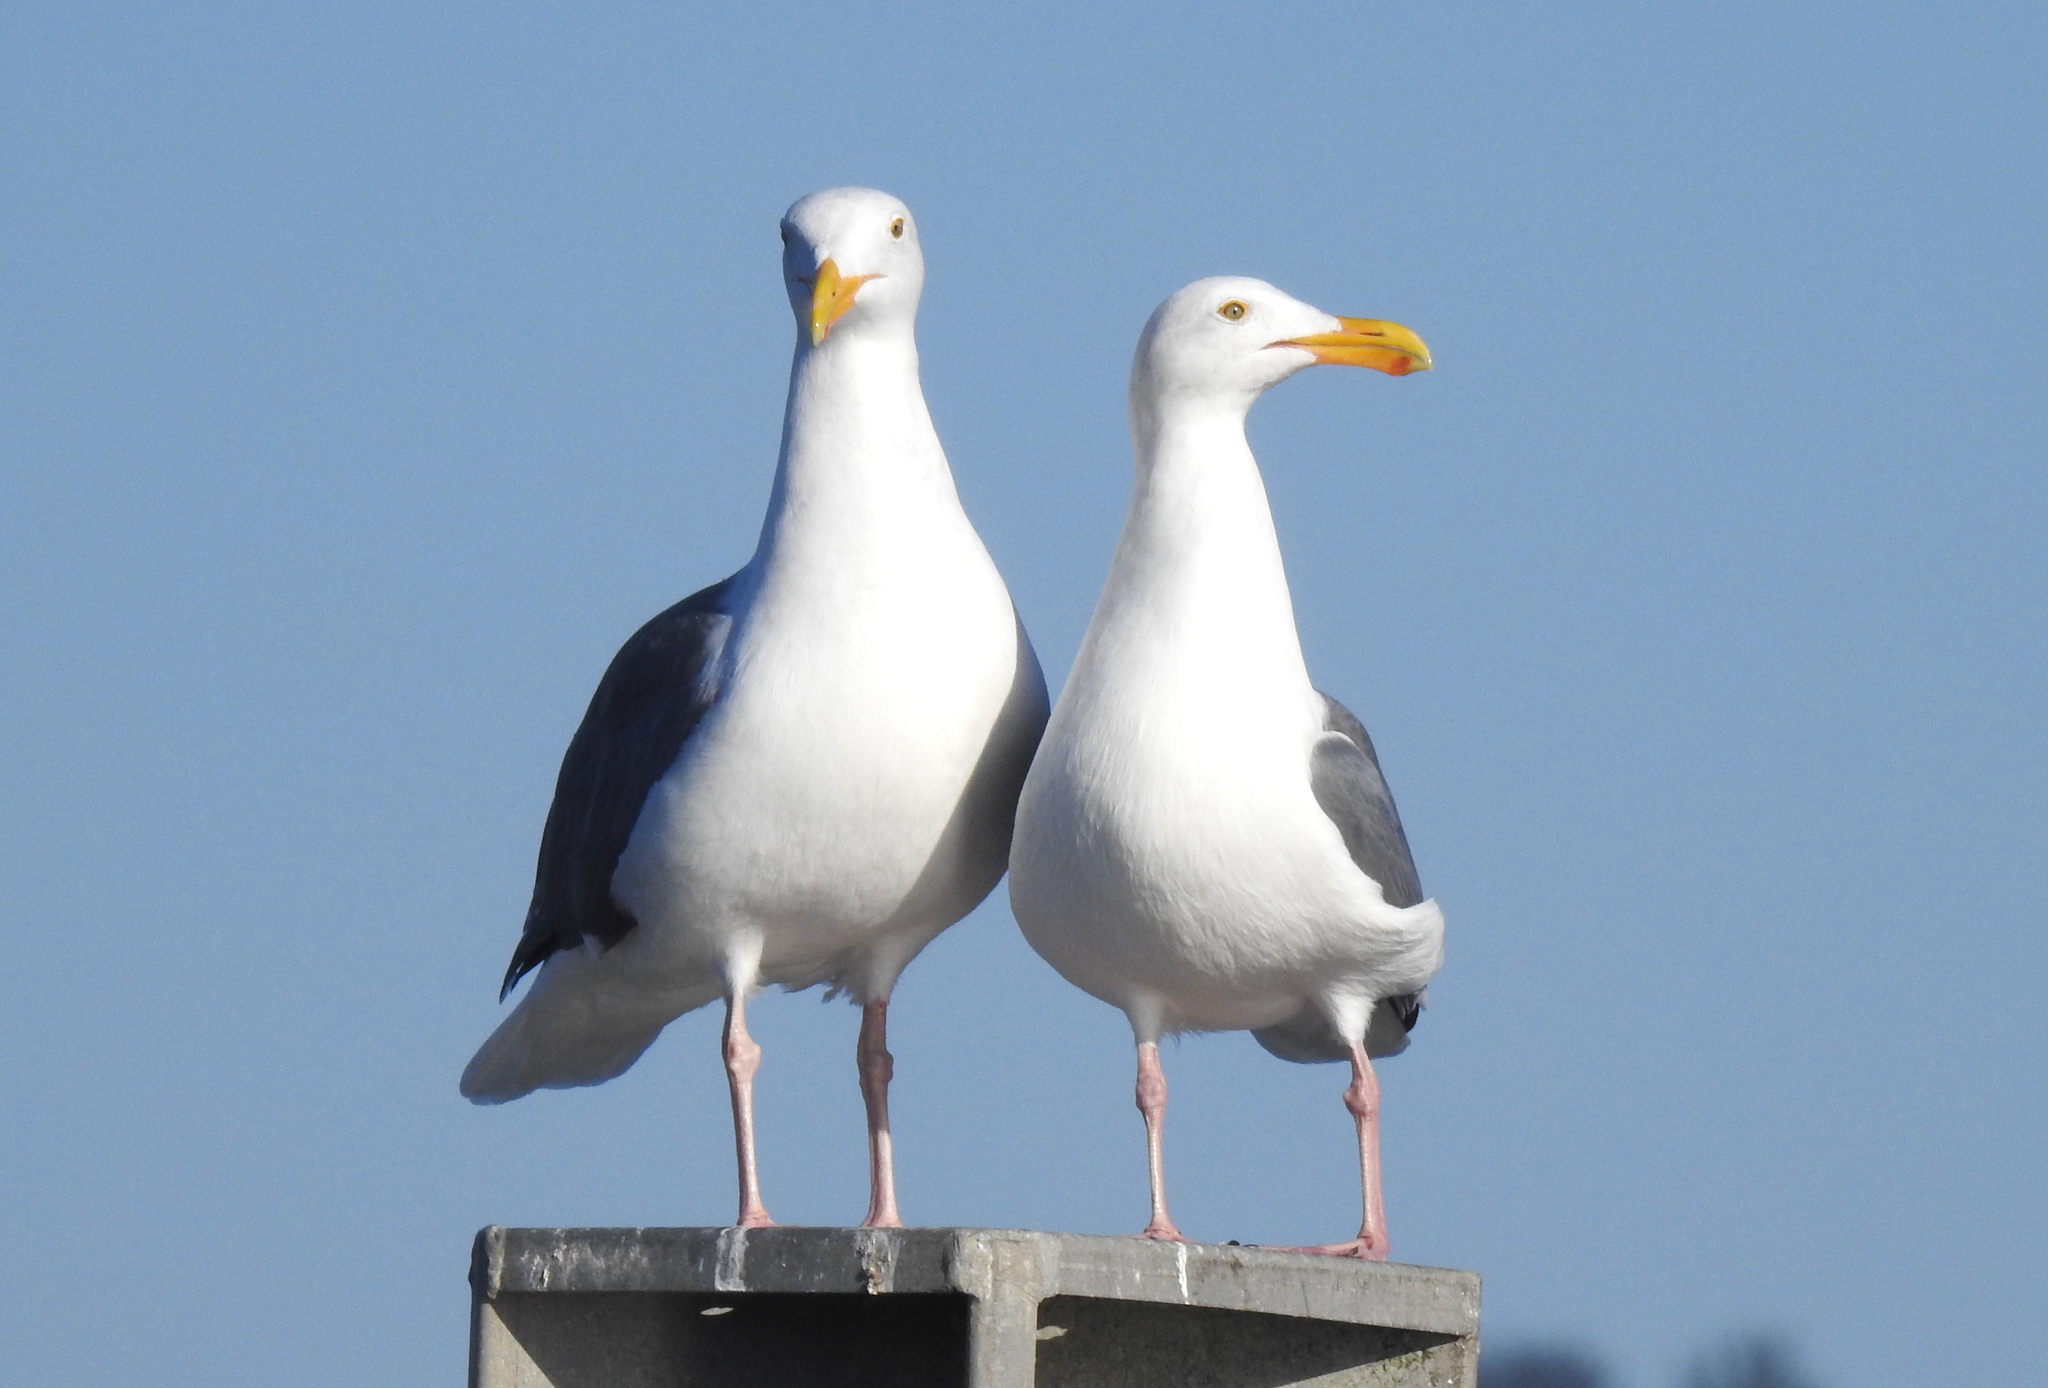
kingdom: Animalia
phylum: Chordata
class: Aves
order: Charadriiformes
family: Laridae
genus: Larus
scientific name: Larus occidentalis
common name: Western gull
